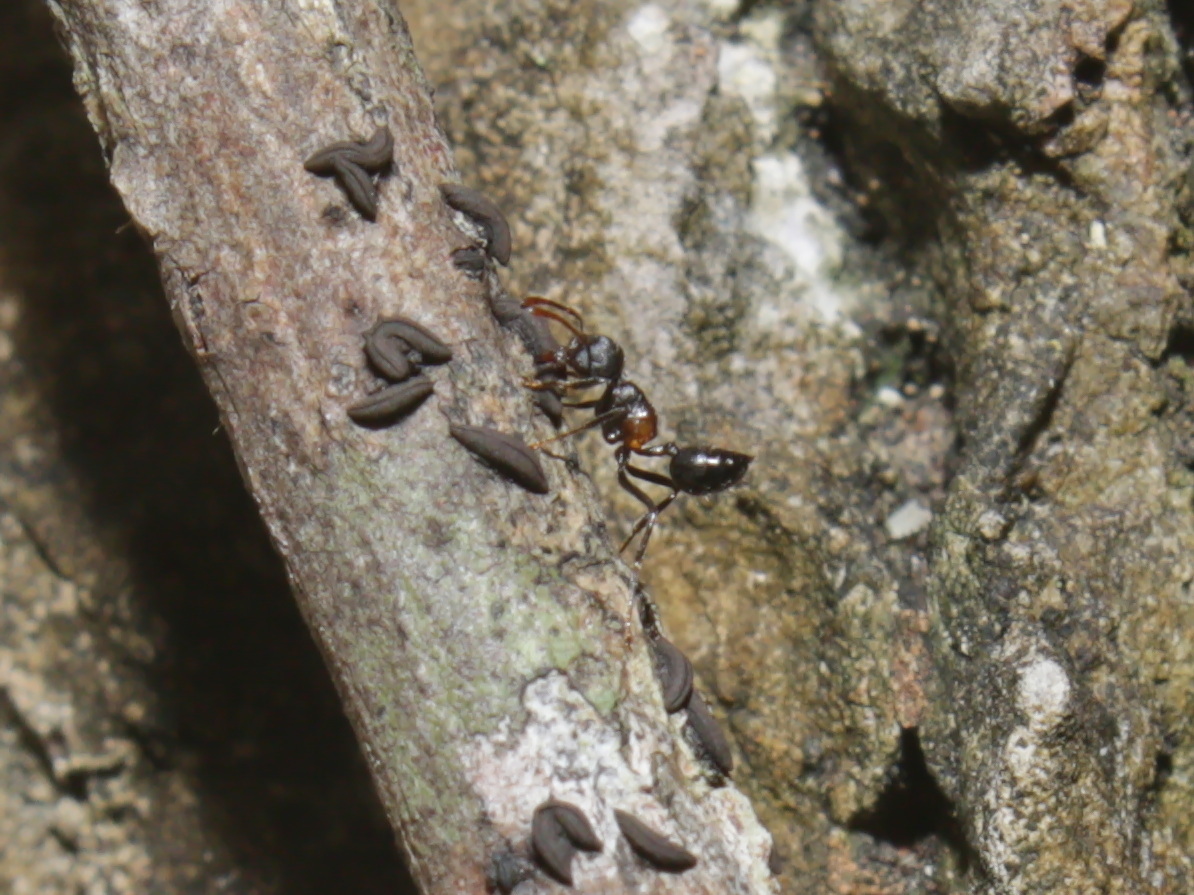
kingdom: Animalia
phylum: Arthropoda
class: Insecta
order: Hymenoptera
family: Formicidae
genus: Crematogaster
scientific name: Crematogaster aurita
